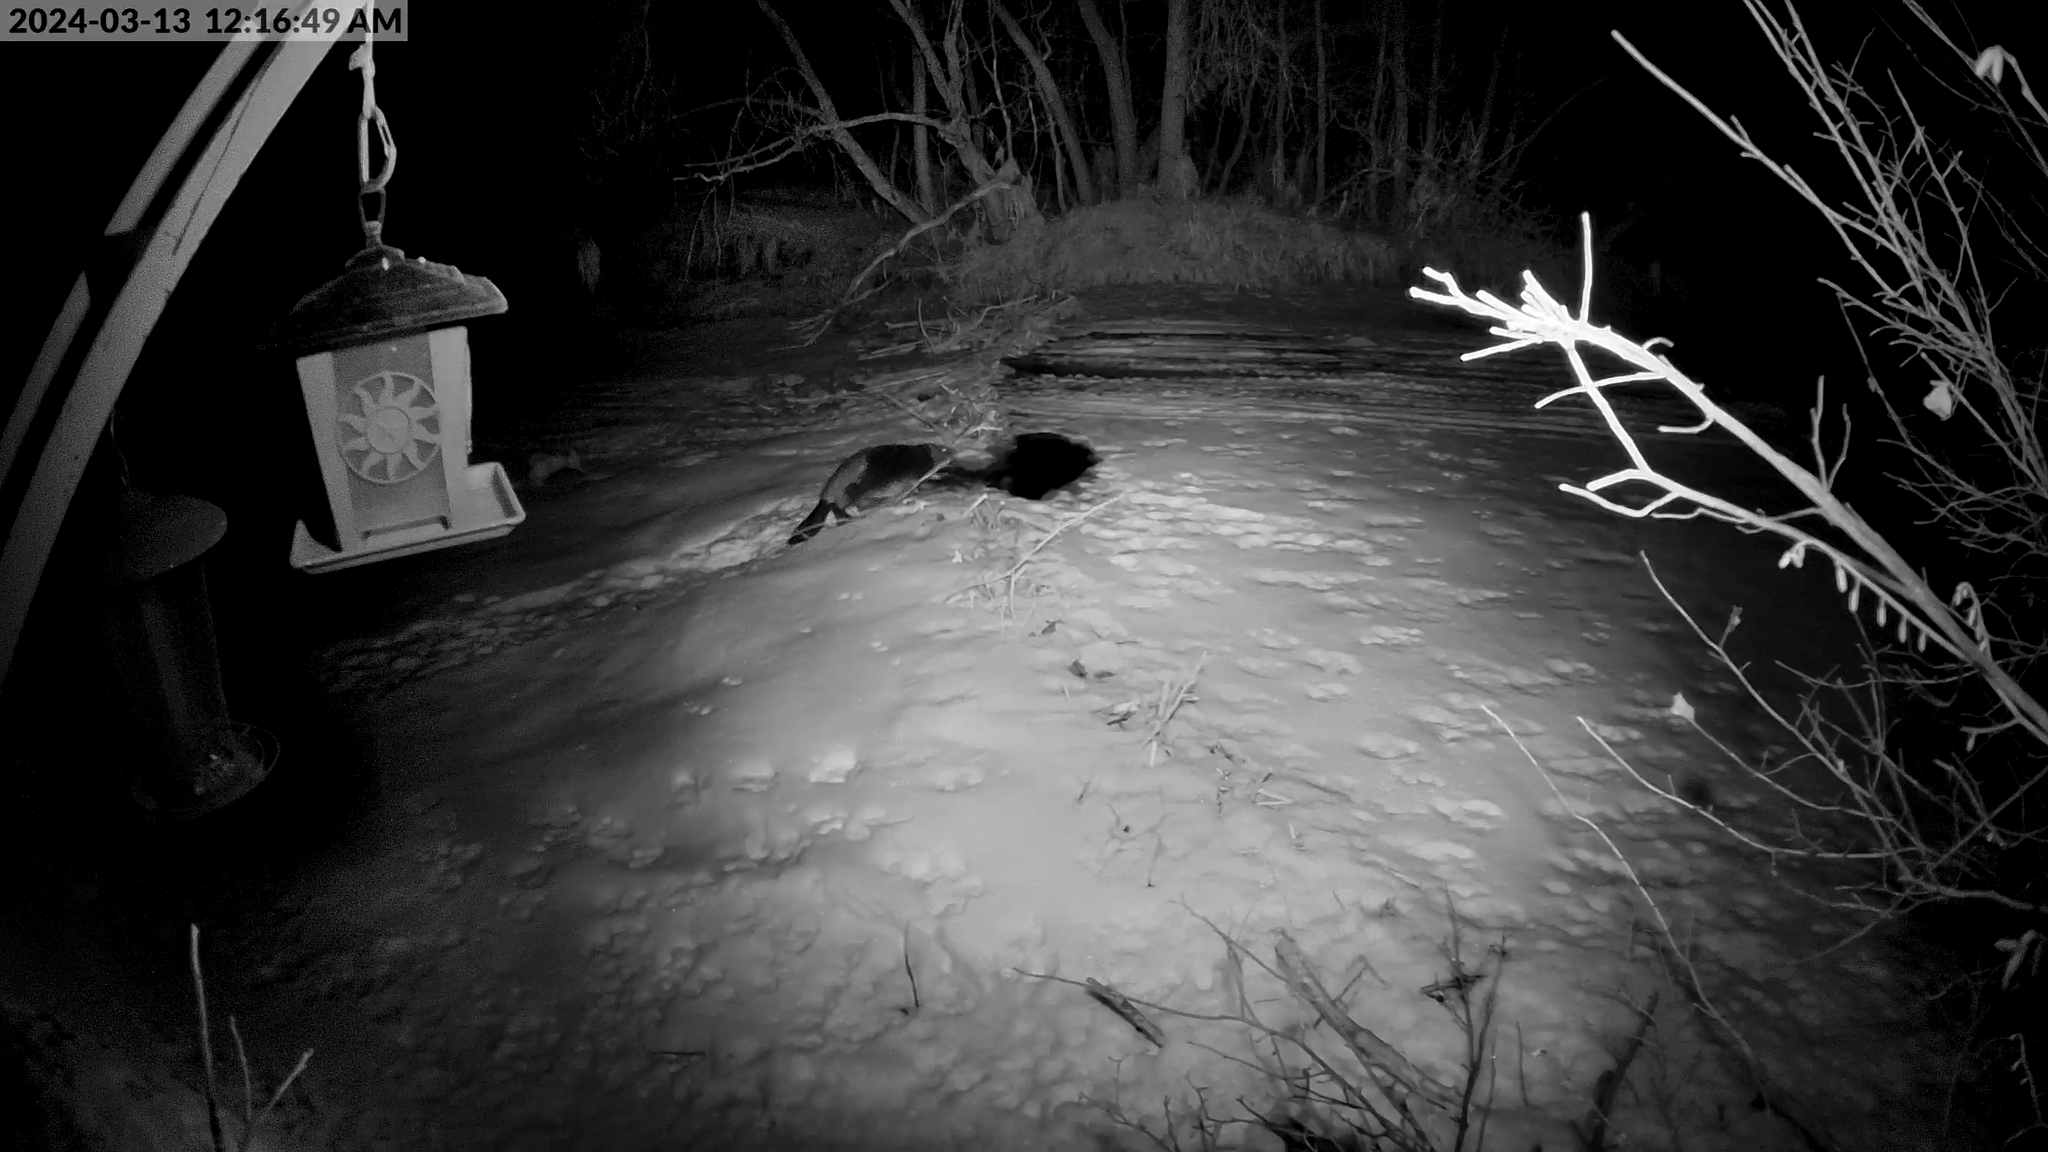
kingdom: Animalia
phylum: Chordata
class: Mammalia
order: Rodentia
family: Castoridae
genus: Castor
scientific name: Castor canadensis
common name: American beaver
